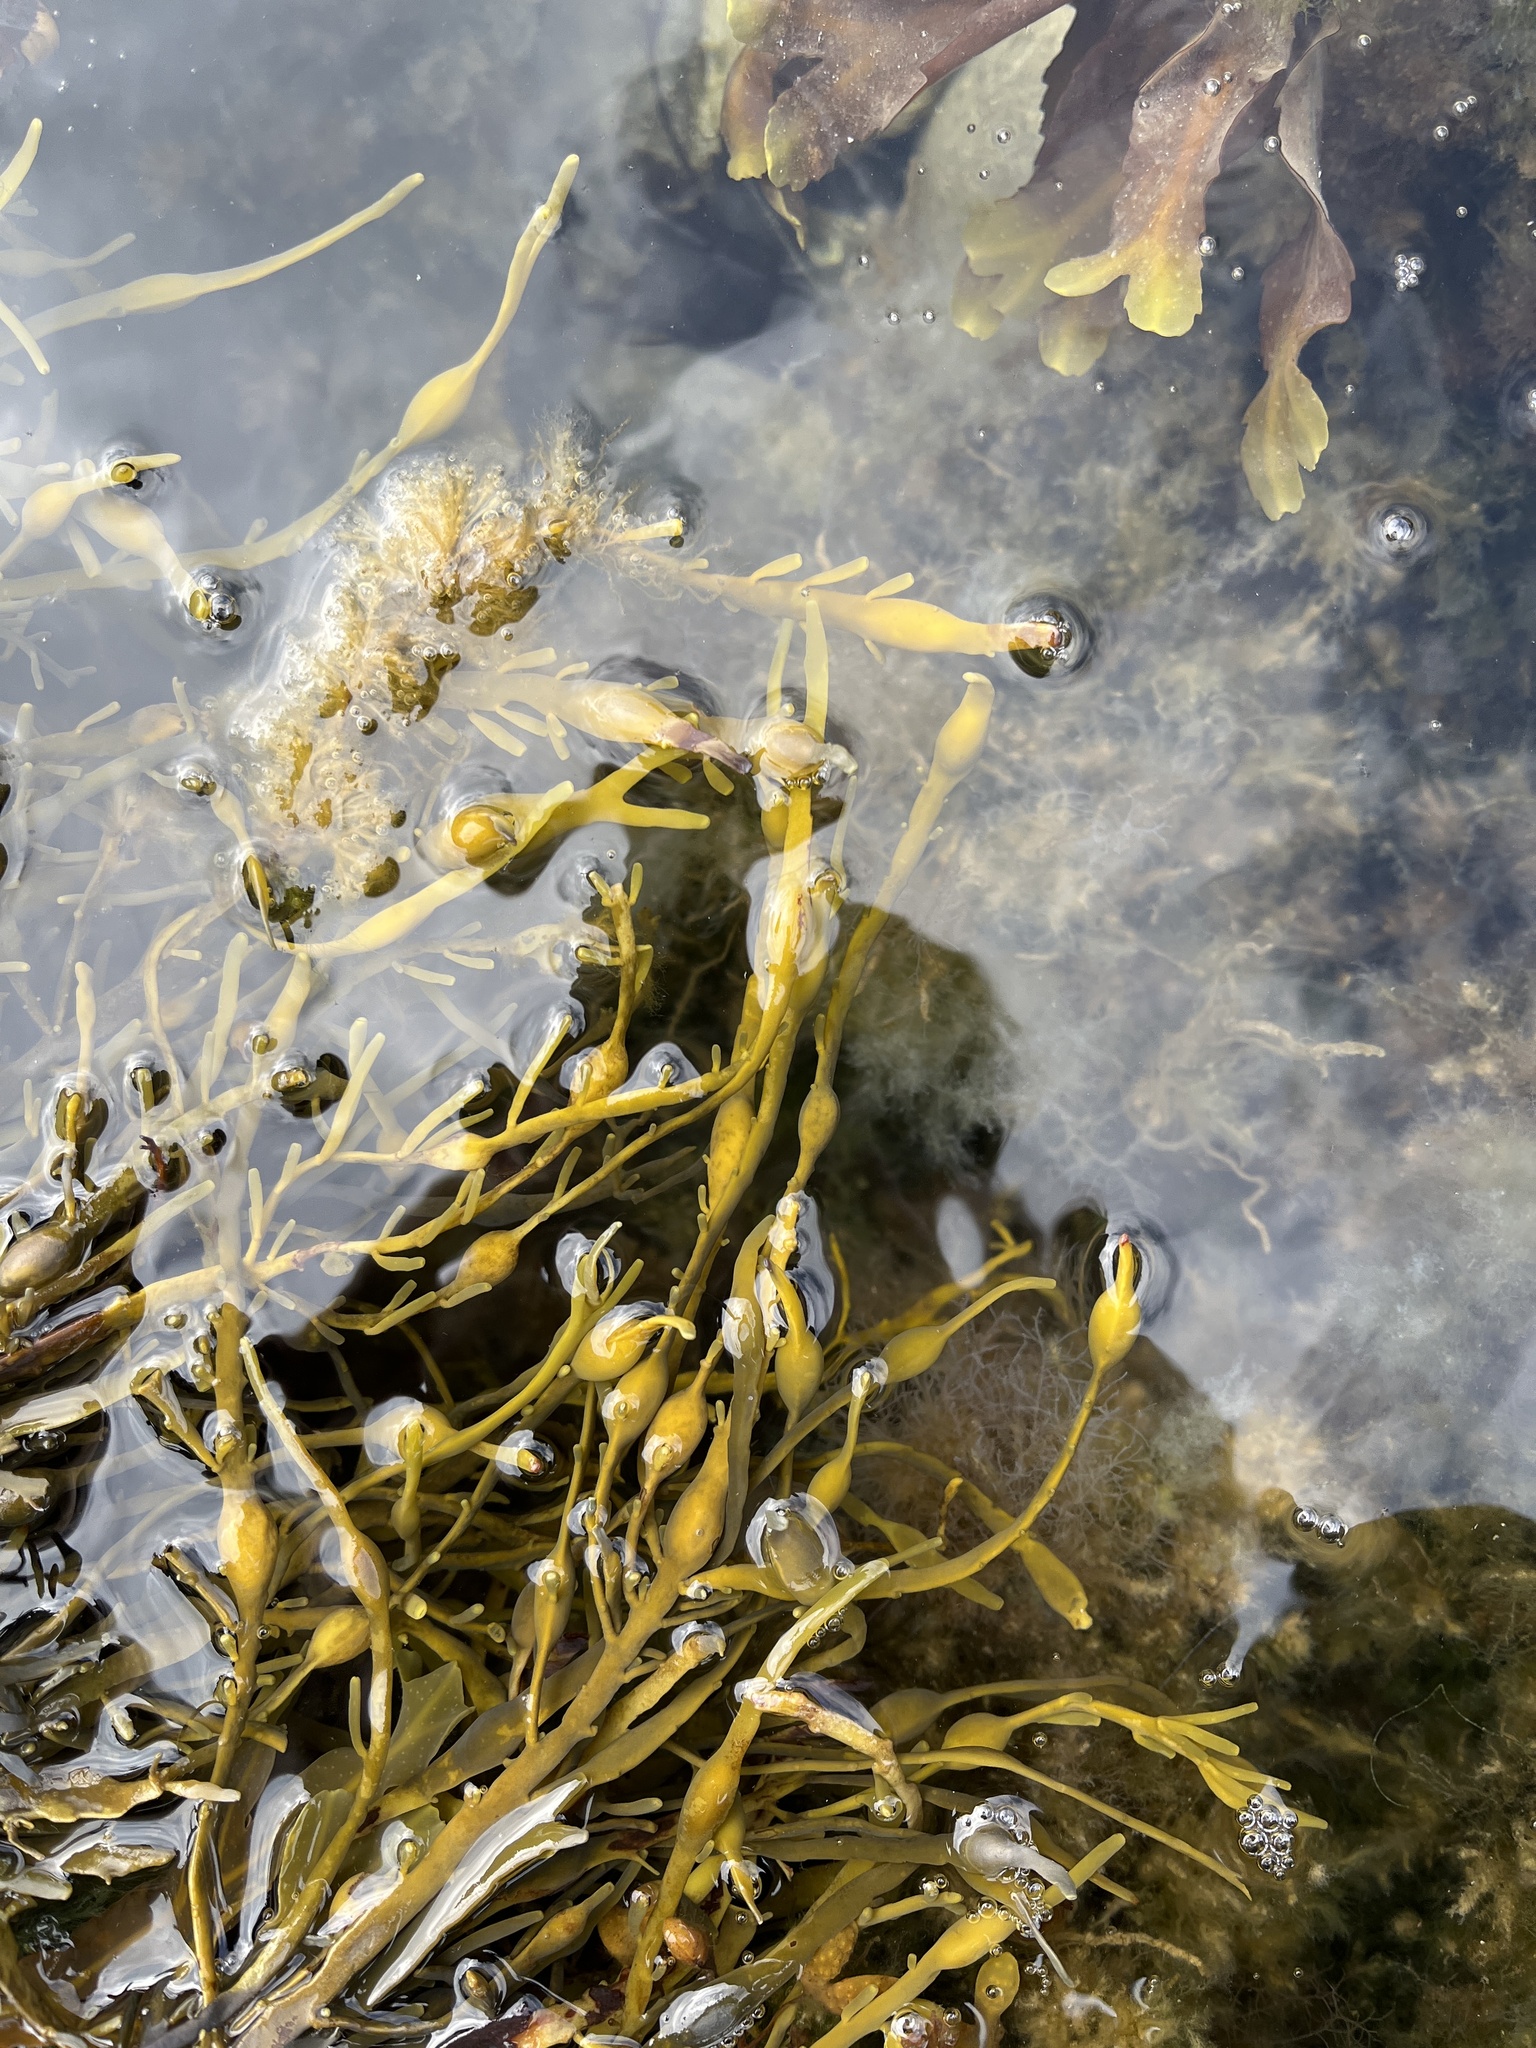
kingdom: Chromista
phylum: Ochrophyta
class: Phaeophyceae
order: Fucales
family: Fucaceae
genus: Ascophyllum
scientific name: Ascophyllum nodosum
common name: Knotted wrack
